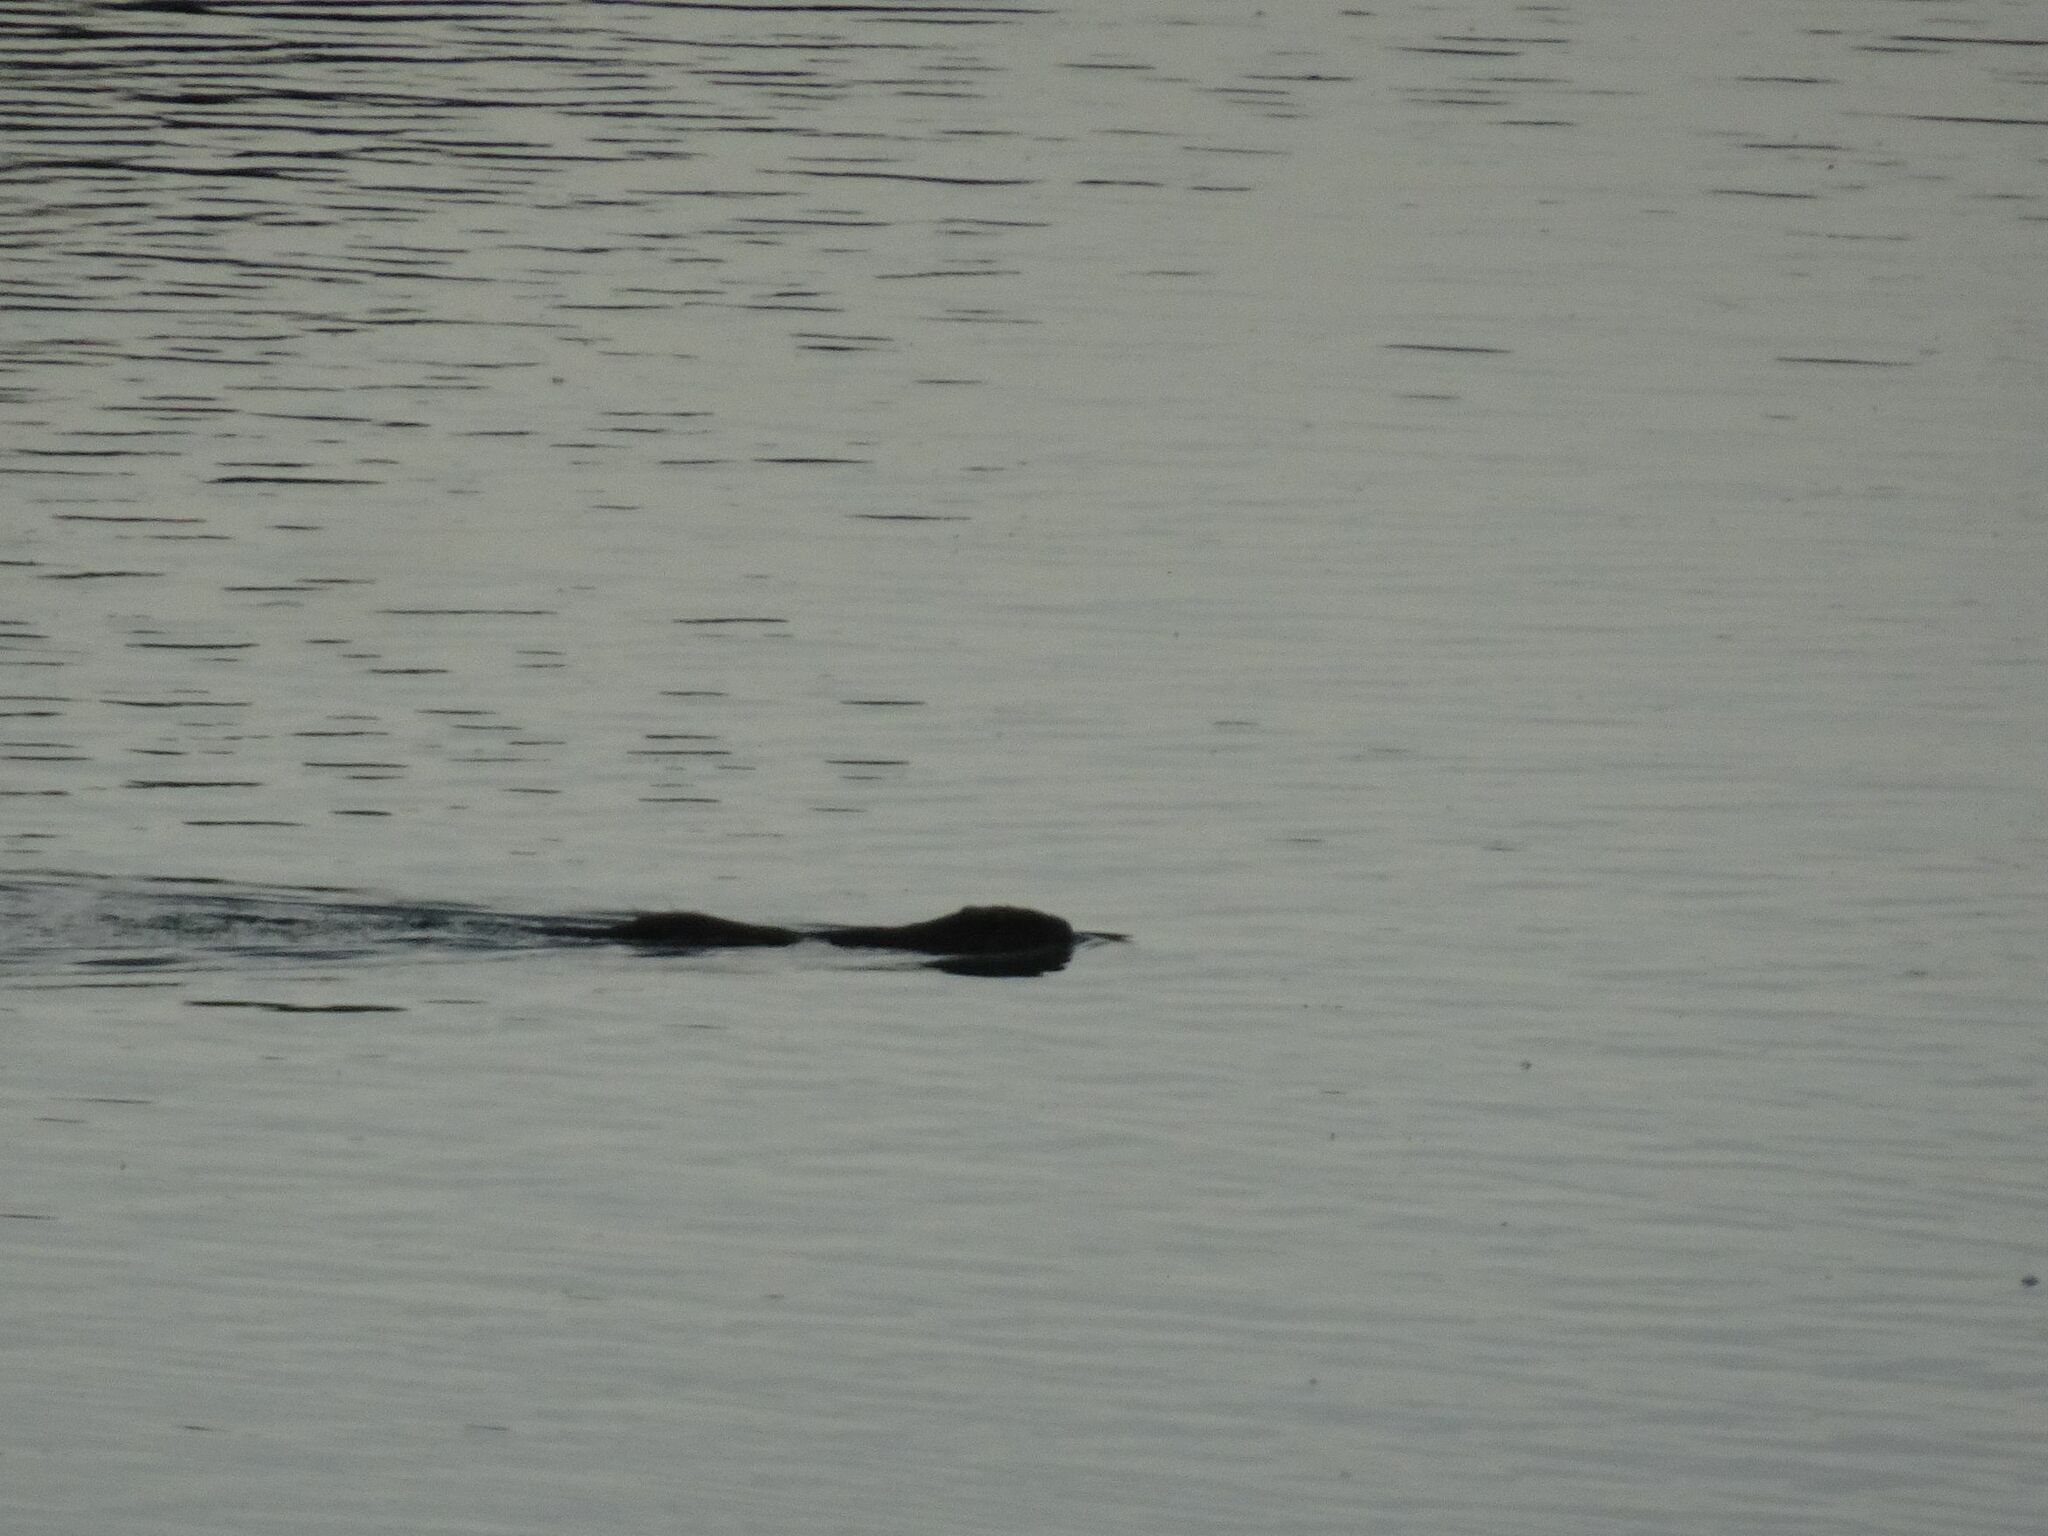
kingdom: Animalia
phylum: Chordata
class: Mammalia
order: Rodentia
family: Myocastoridae
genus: Myocastor
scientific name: Myocastor coypus
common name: Coypu
